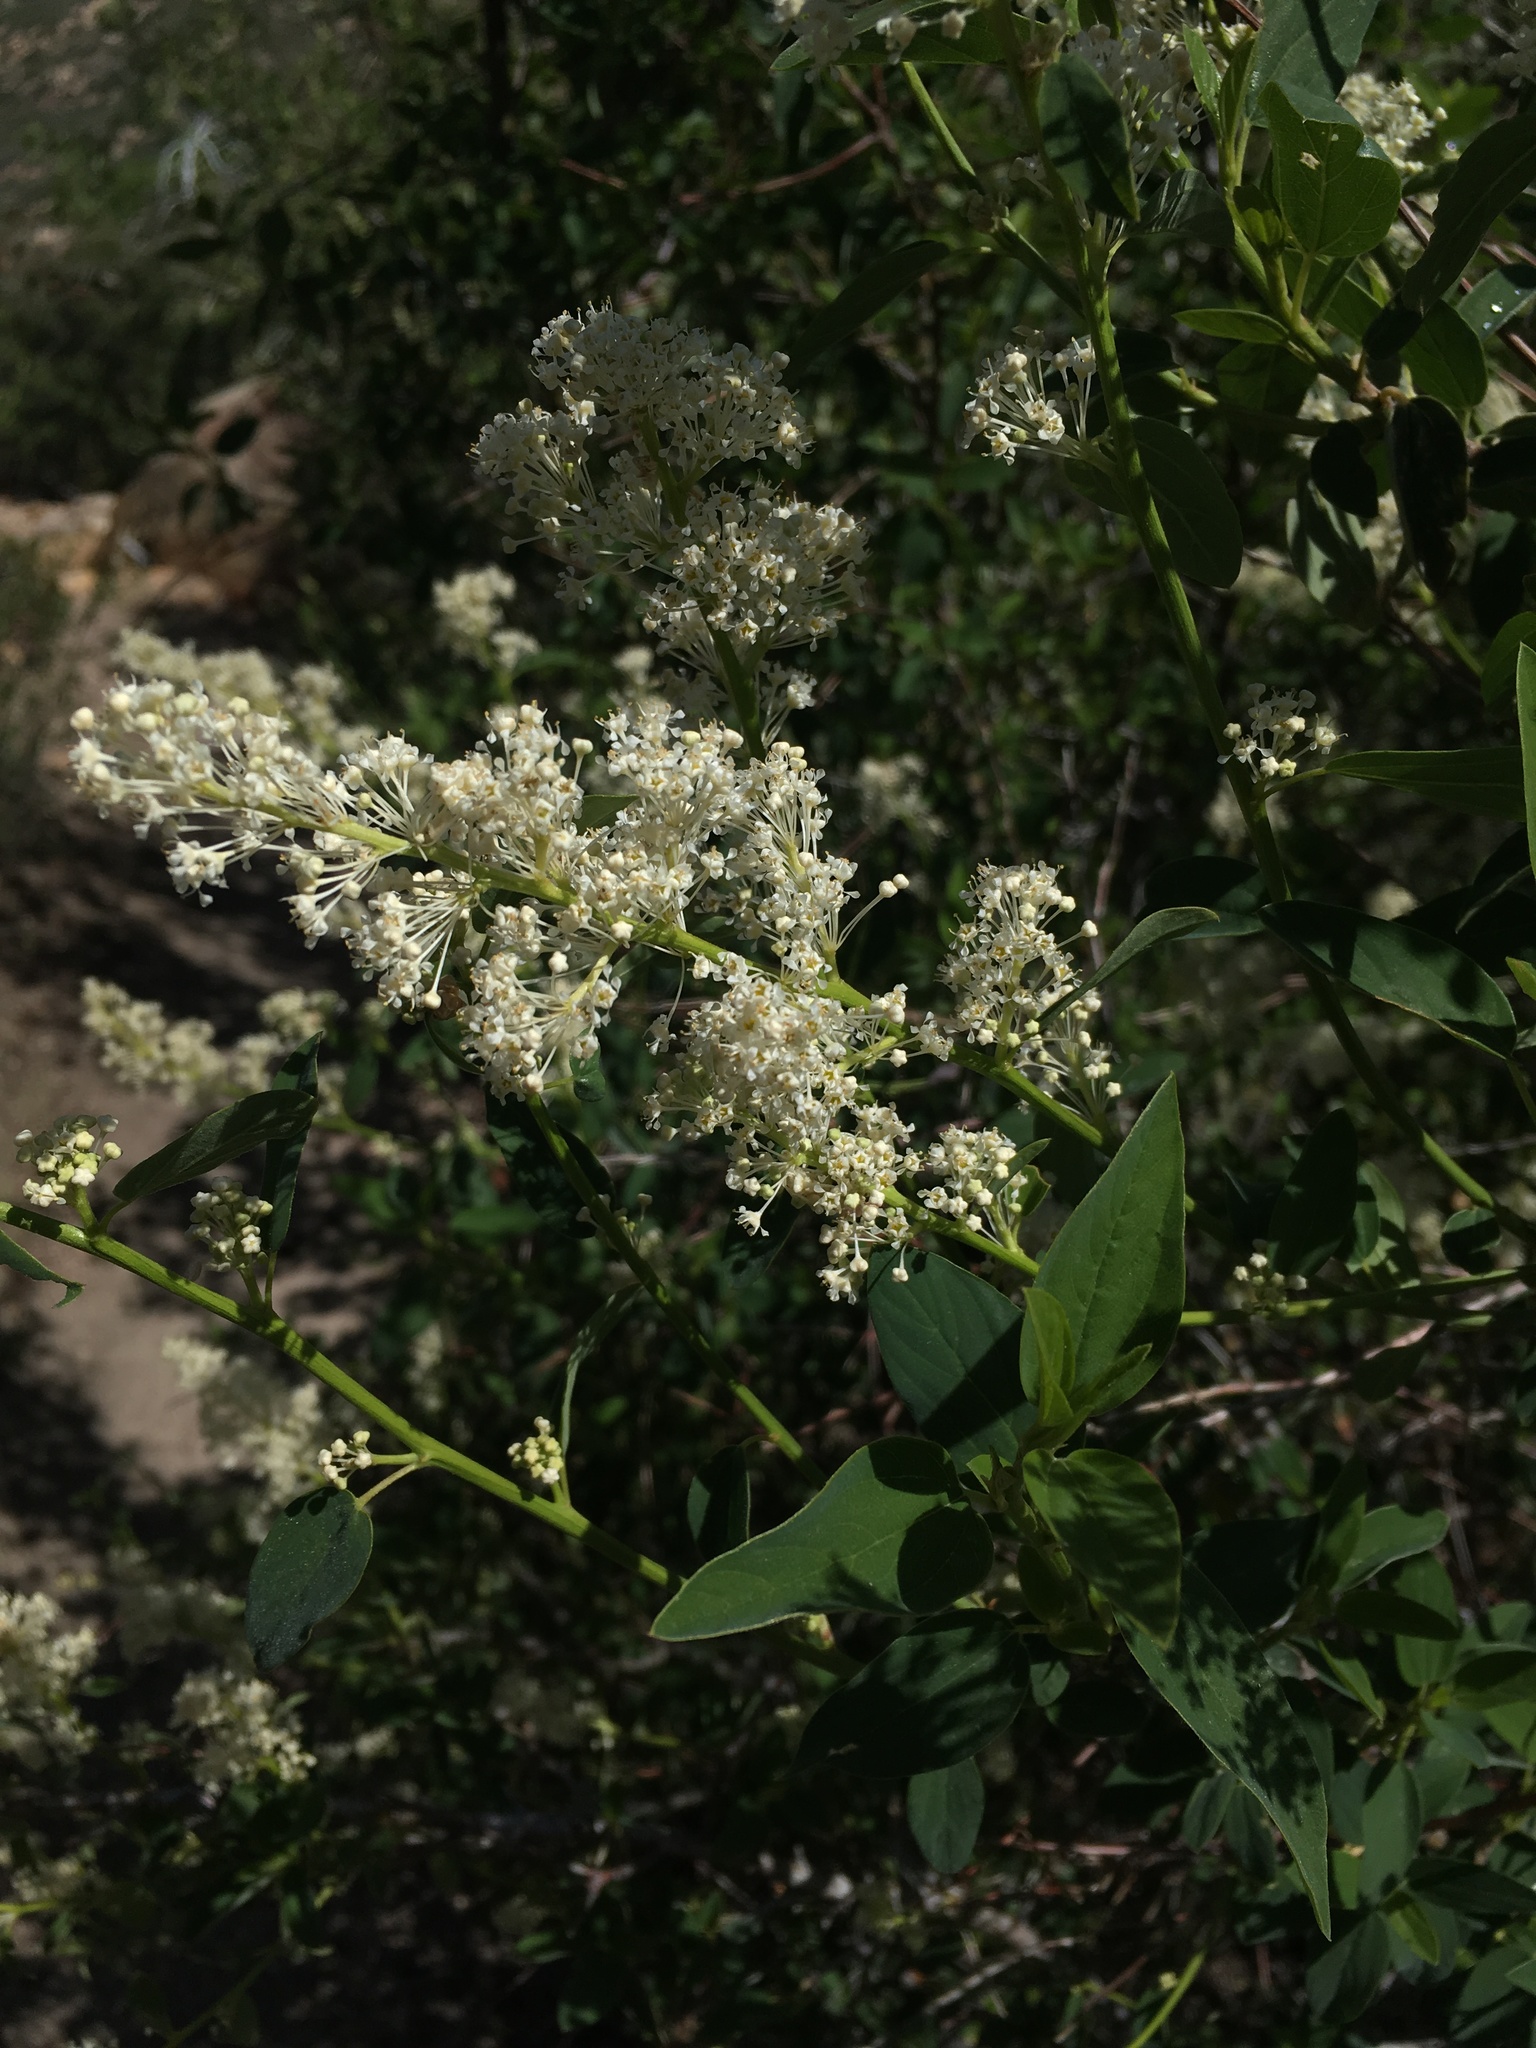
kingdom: Plantae
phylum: Tracheophyta
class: Magnoliopsida
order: Rosales
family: Rhamnaceae
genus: Ceanothus
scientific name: Ceanothus integerrimus
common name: Deerbrush ceanothus
